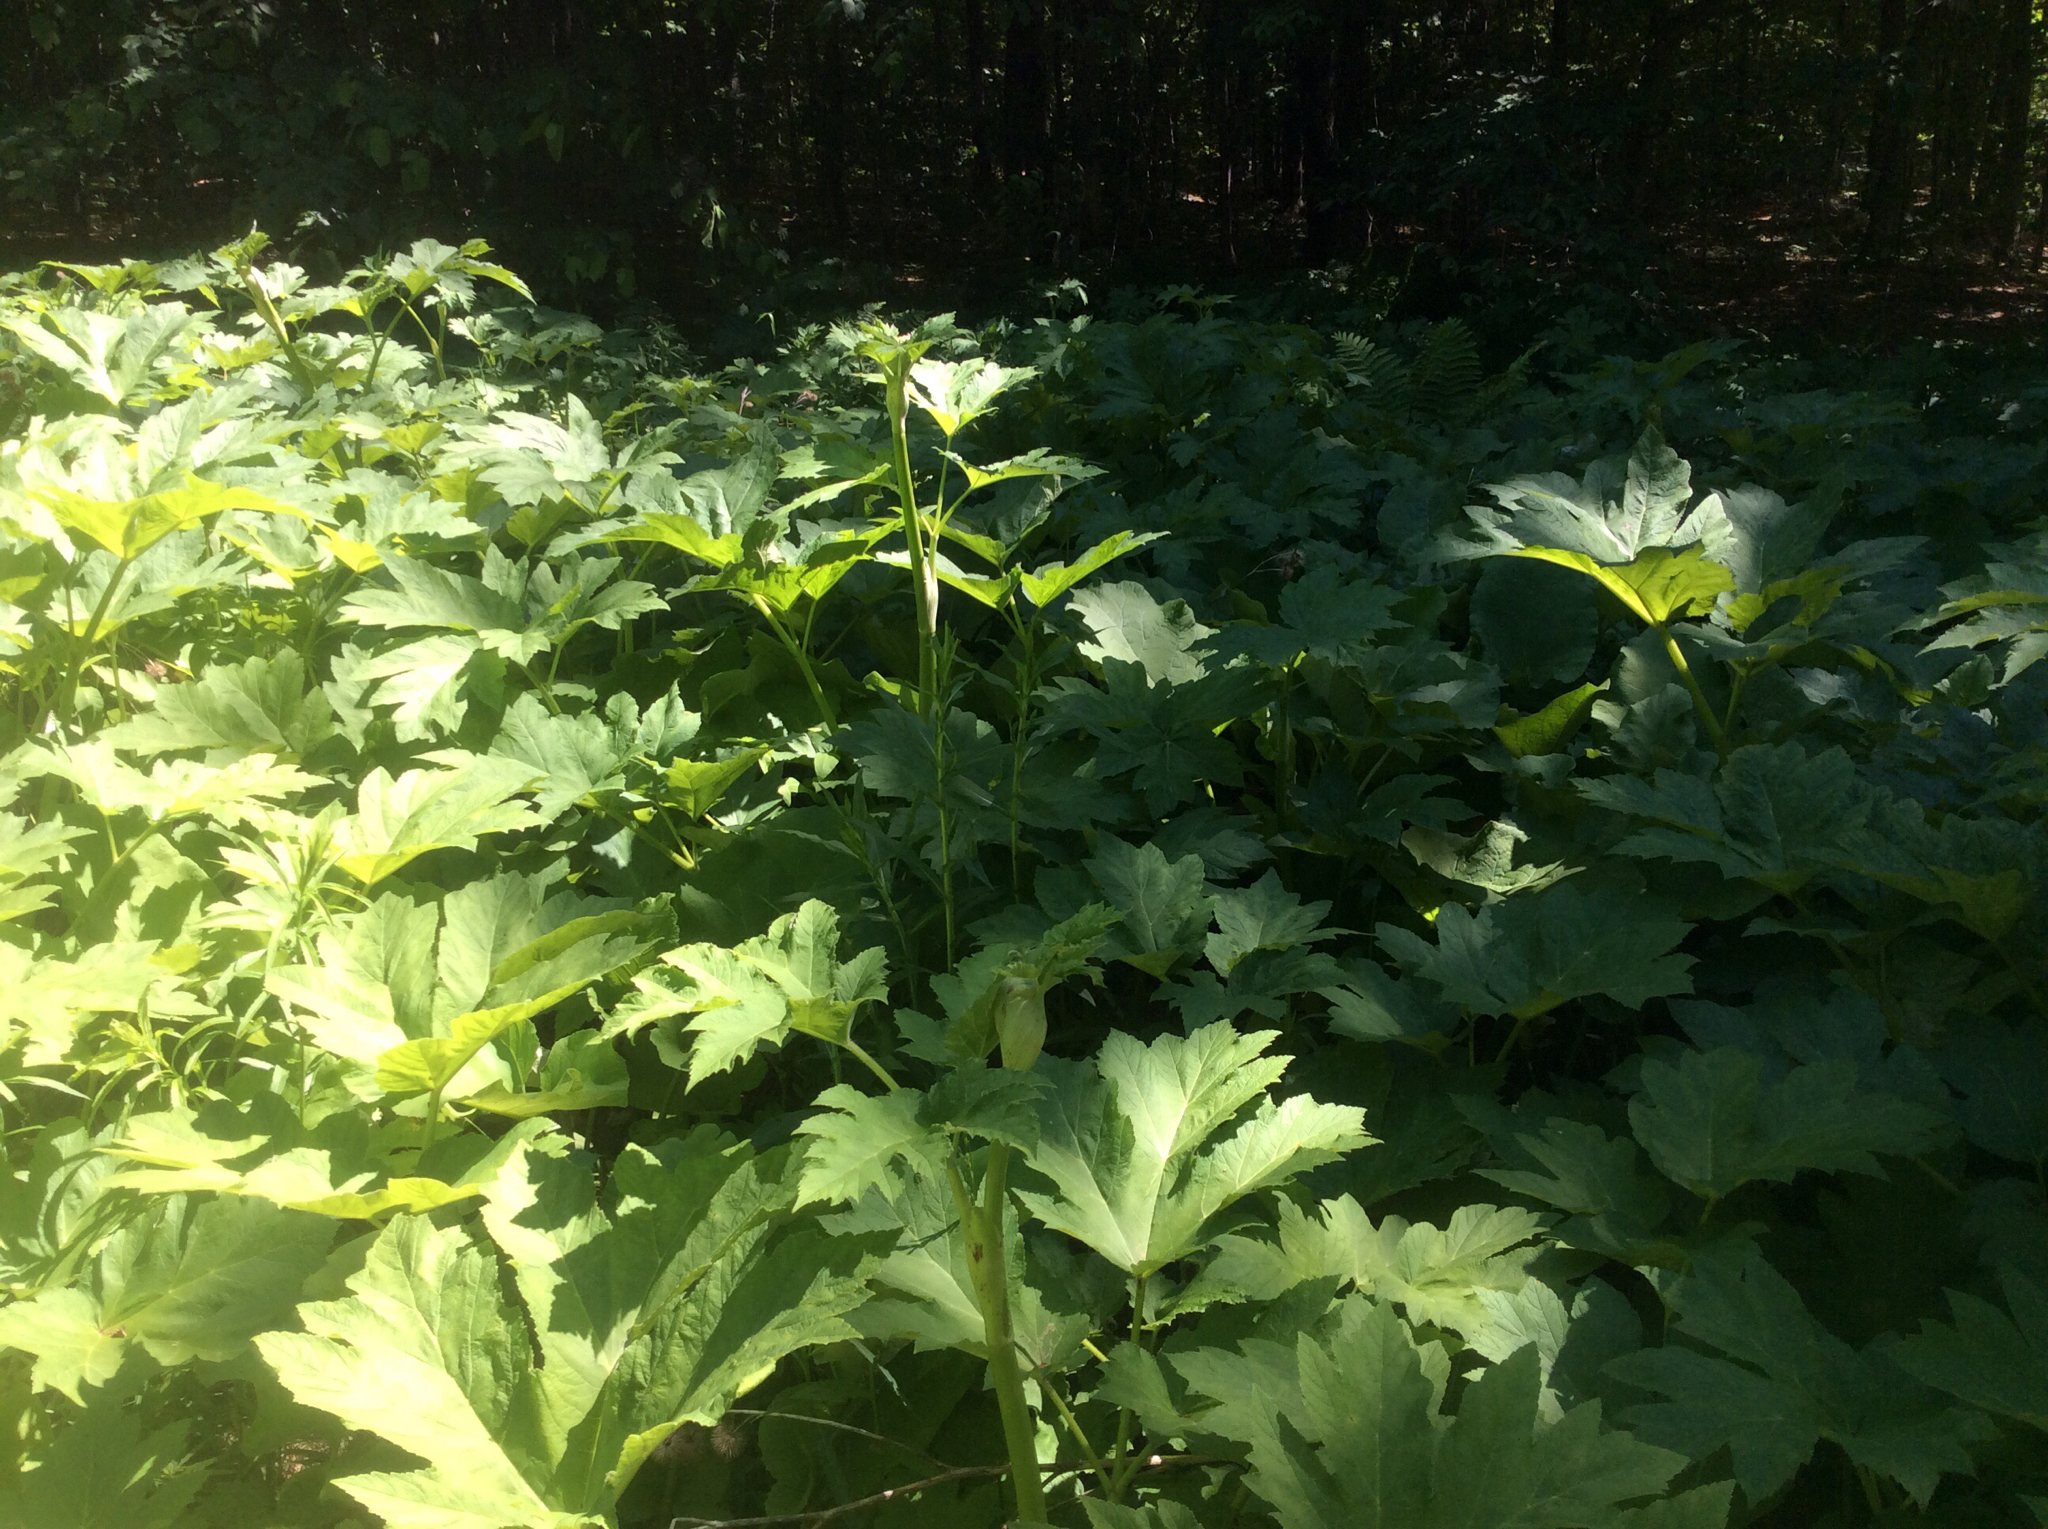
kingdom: Plantae
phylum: Tracheophyta
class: Magnoliopsida
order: Apiales
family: Apiaceae
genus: Heracleum
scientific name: Heracleum maximum
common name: American cow parsnip
